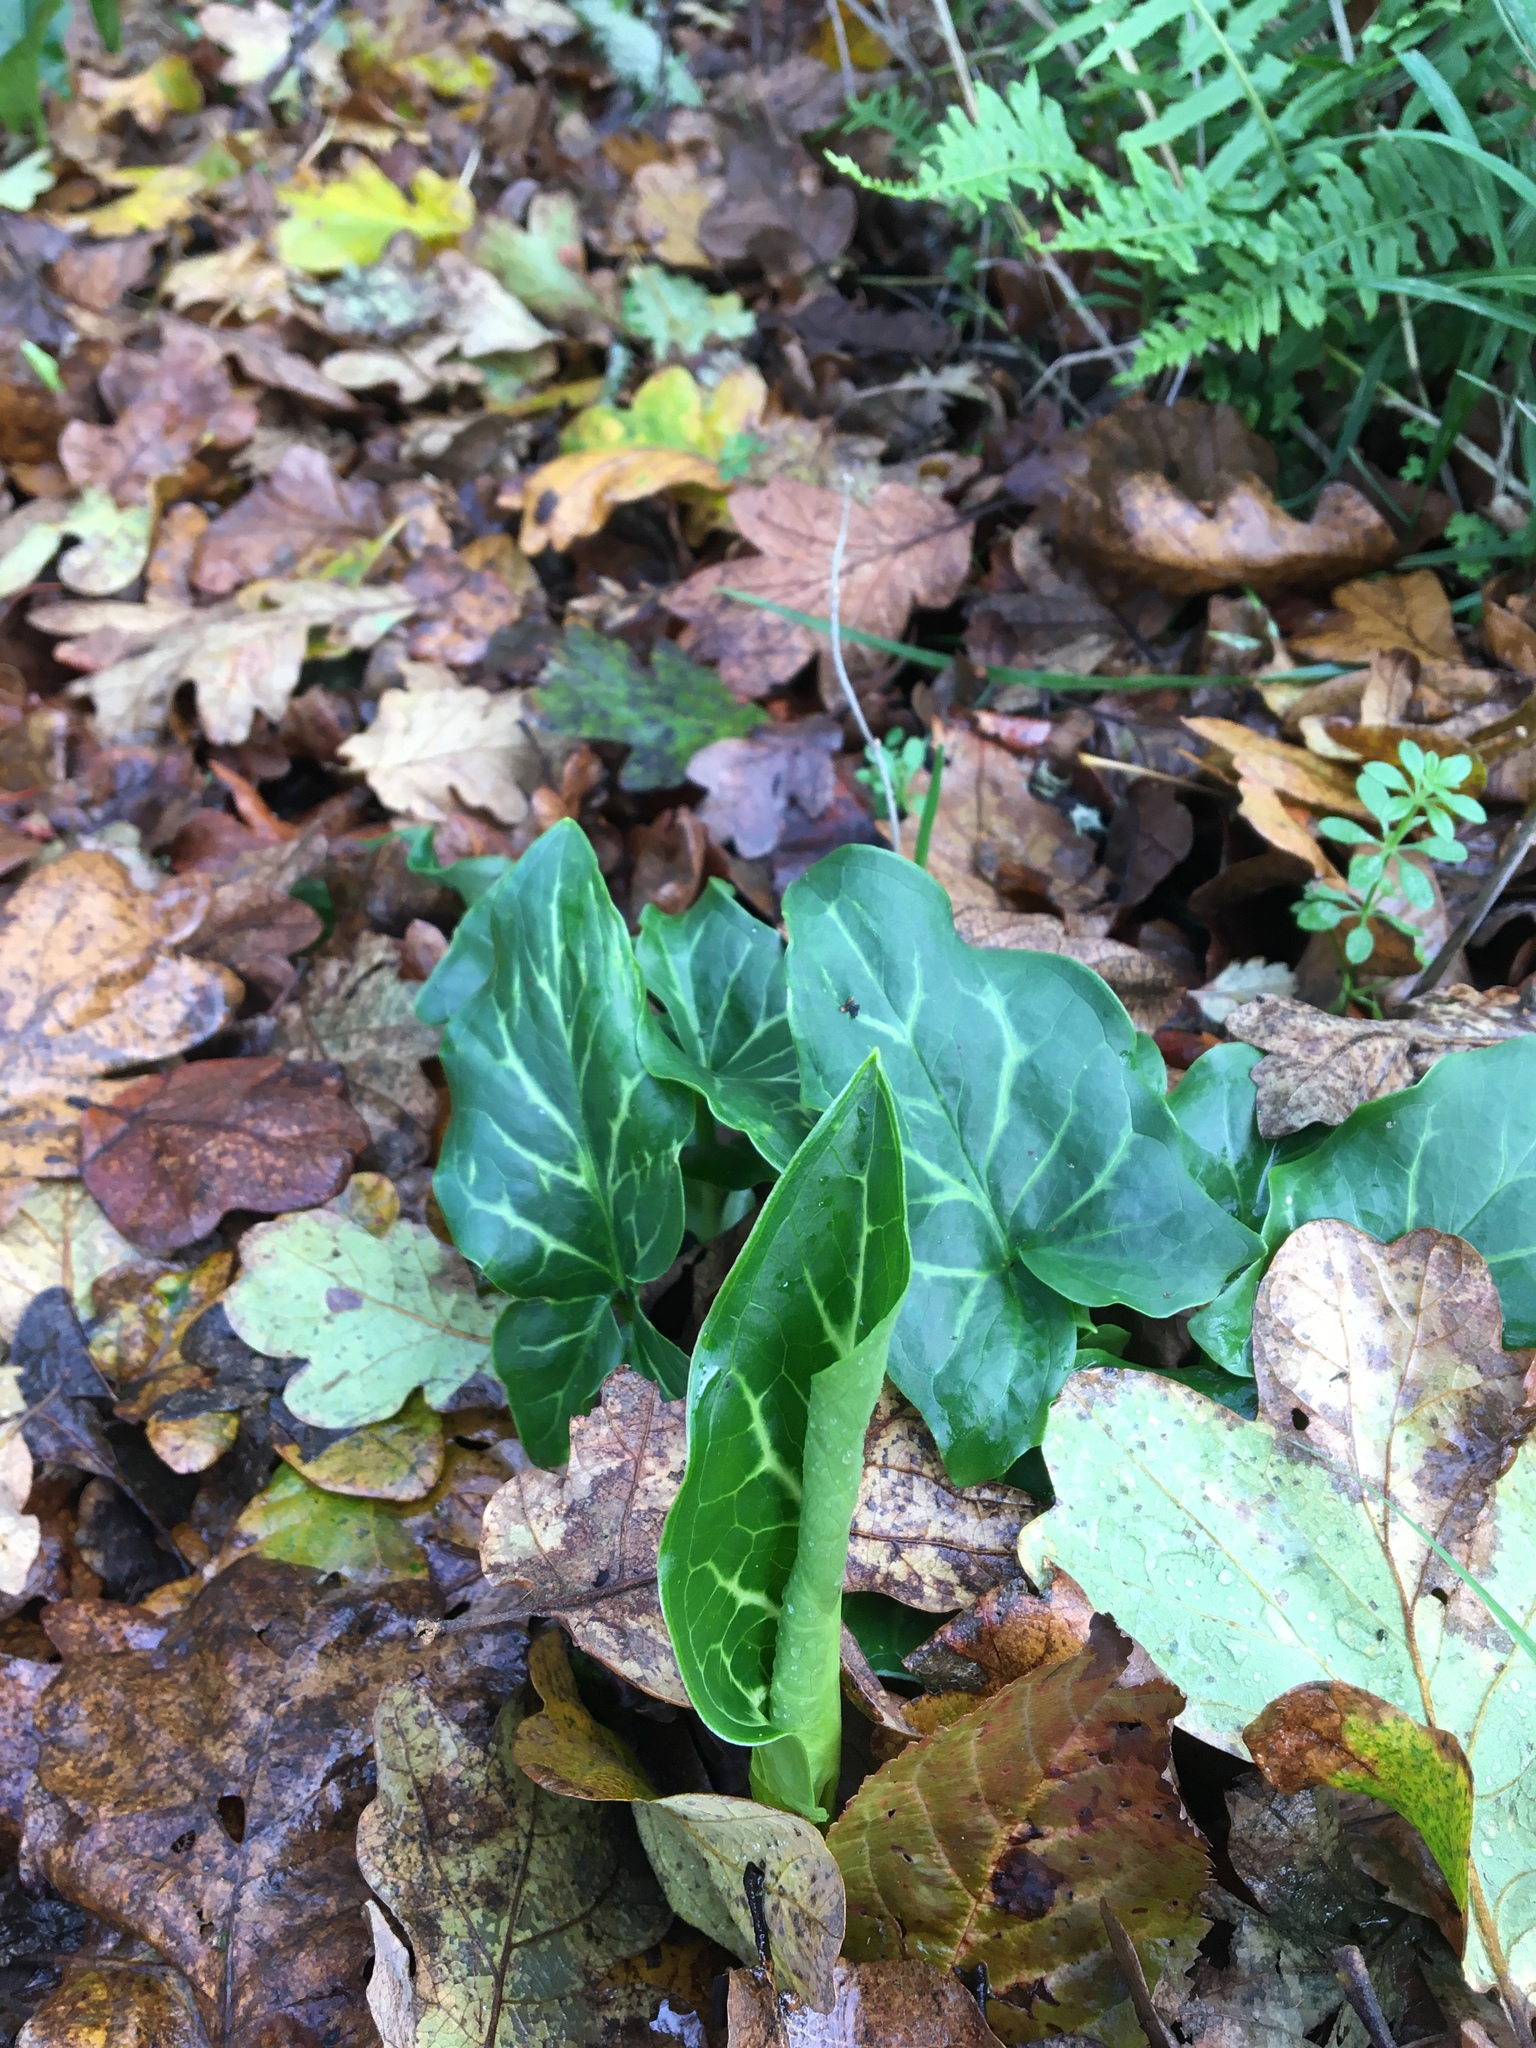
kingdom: Plantae
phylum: Tracheophyta
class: Liliopsida
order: Alismatales
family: Araceae
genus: Arum
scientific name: Arum italicum
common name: Italian lords-and-ladies
